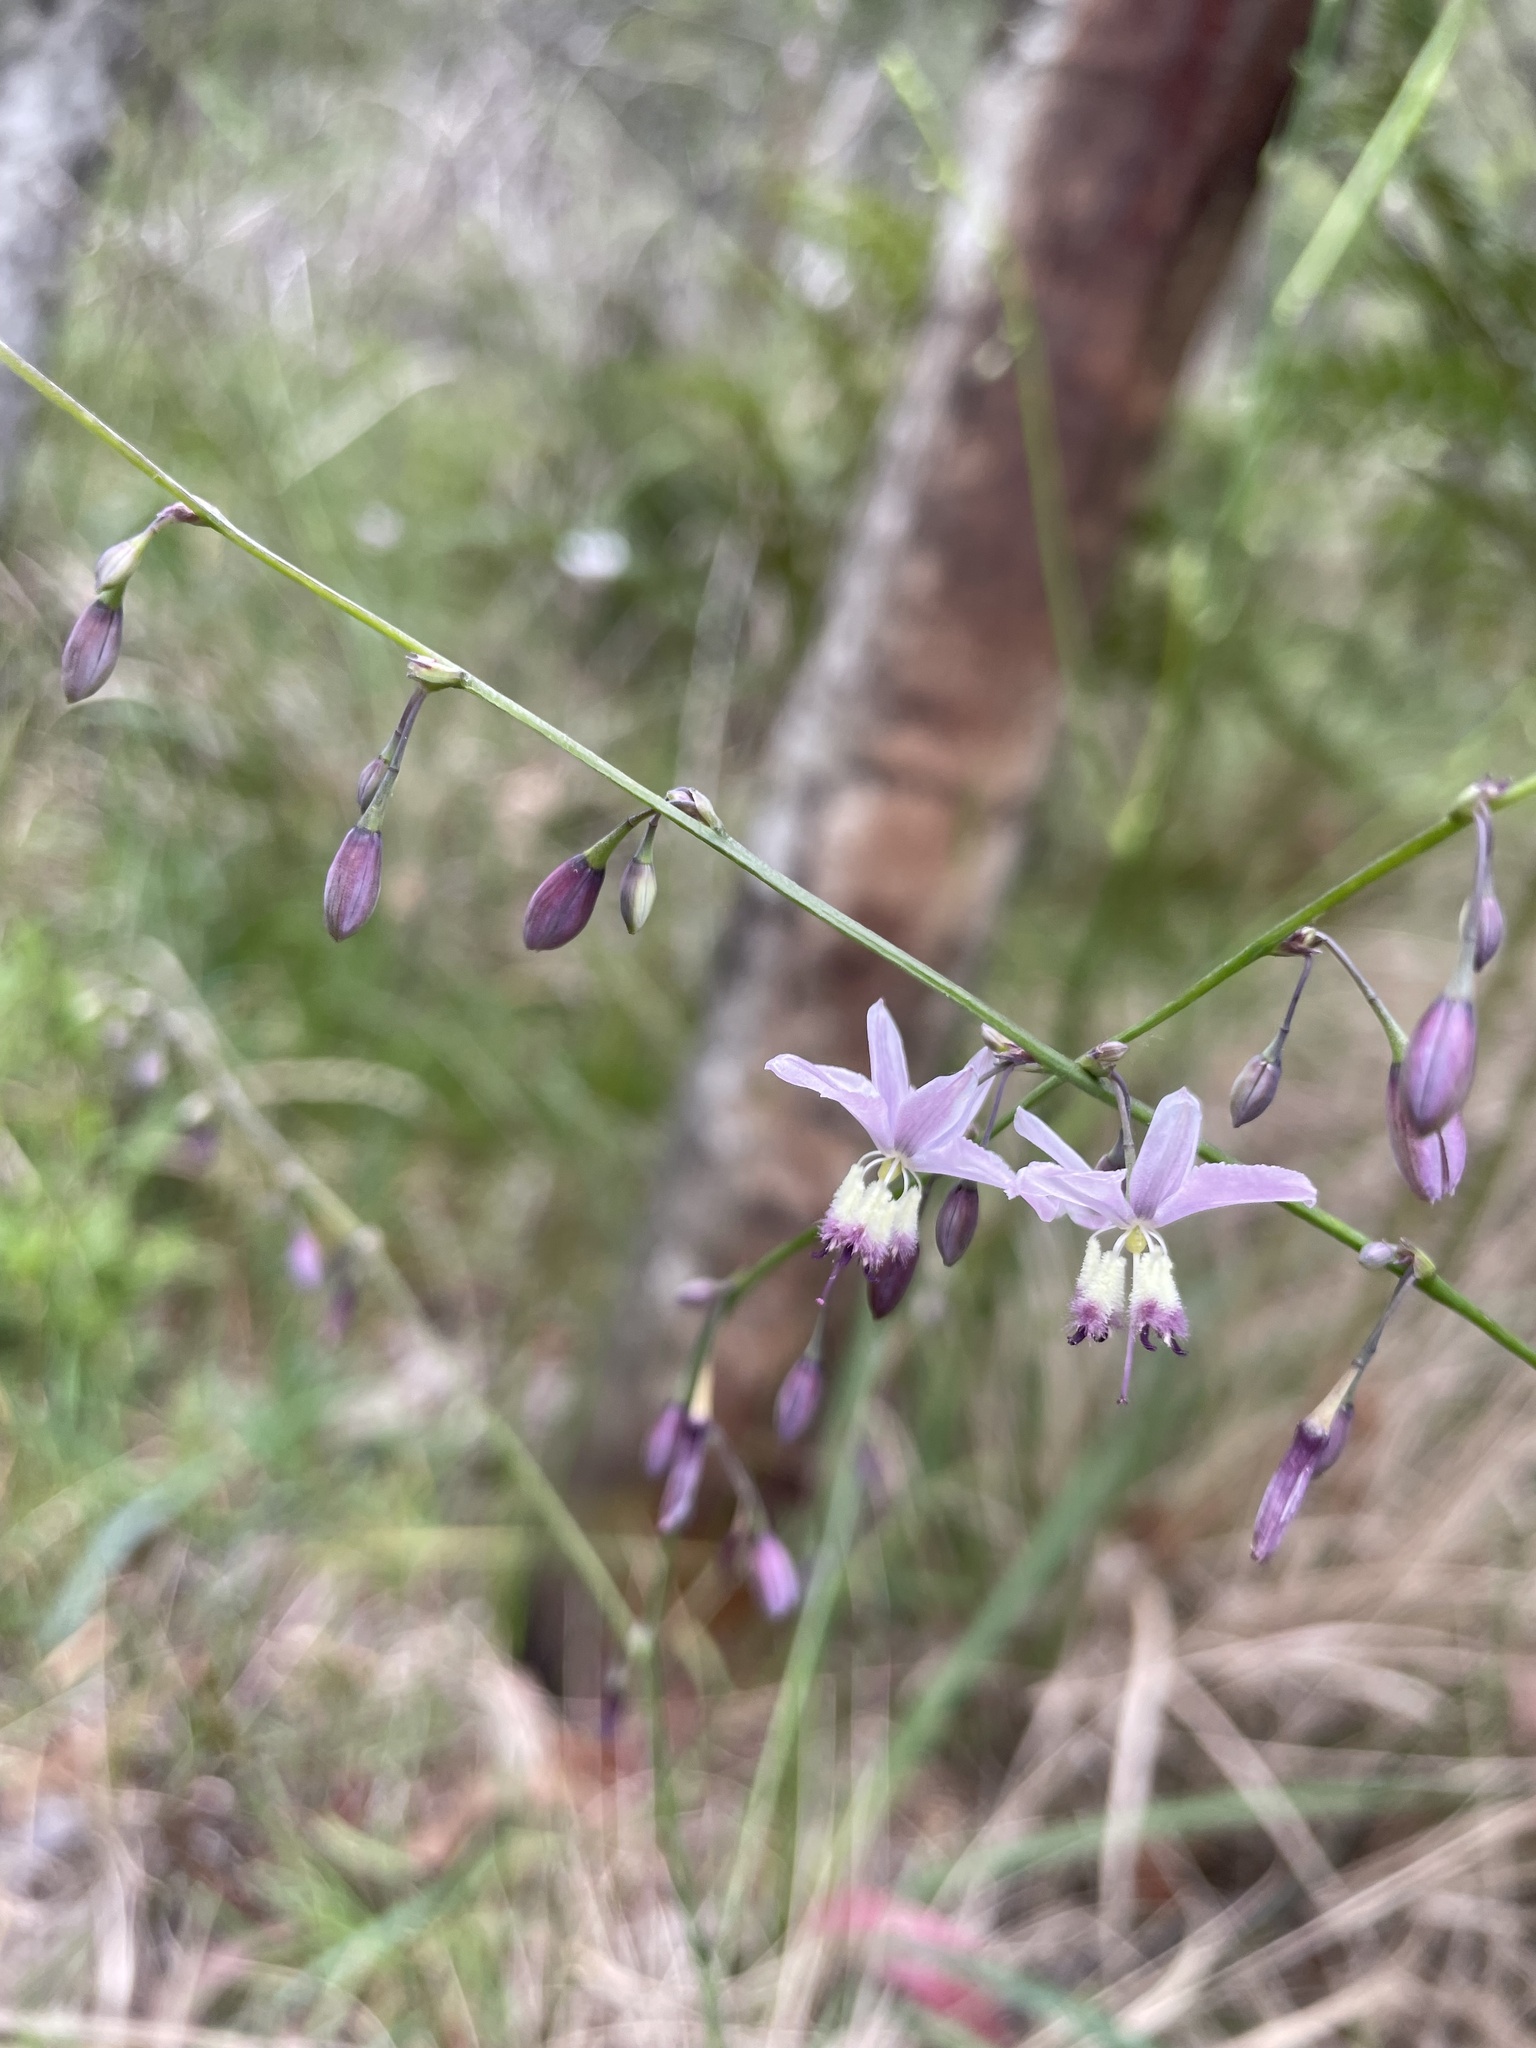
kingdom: Plantae
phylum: Tracheophyta
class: Liliopsida
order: Asparagales
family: Asparagaceae
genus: Arthropodium
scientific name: Arthropodium milleflorum
